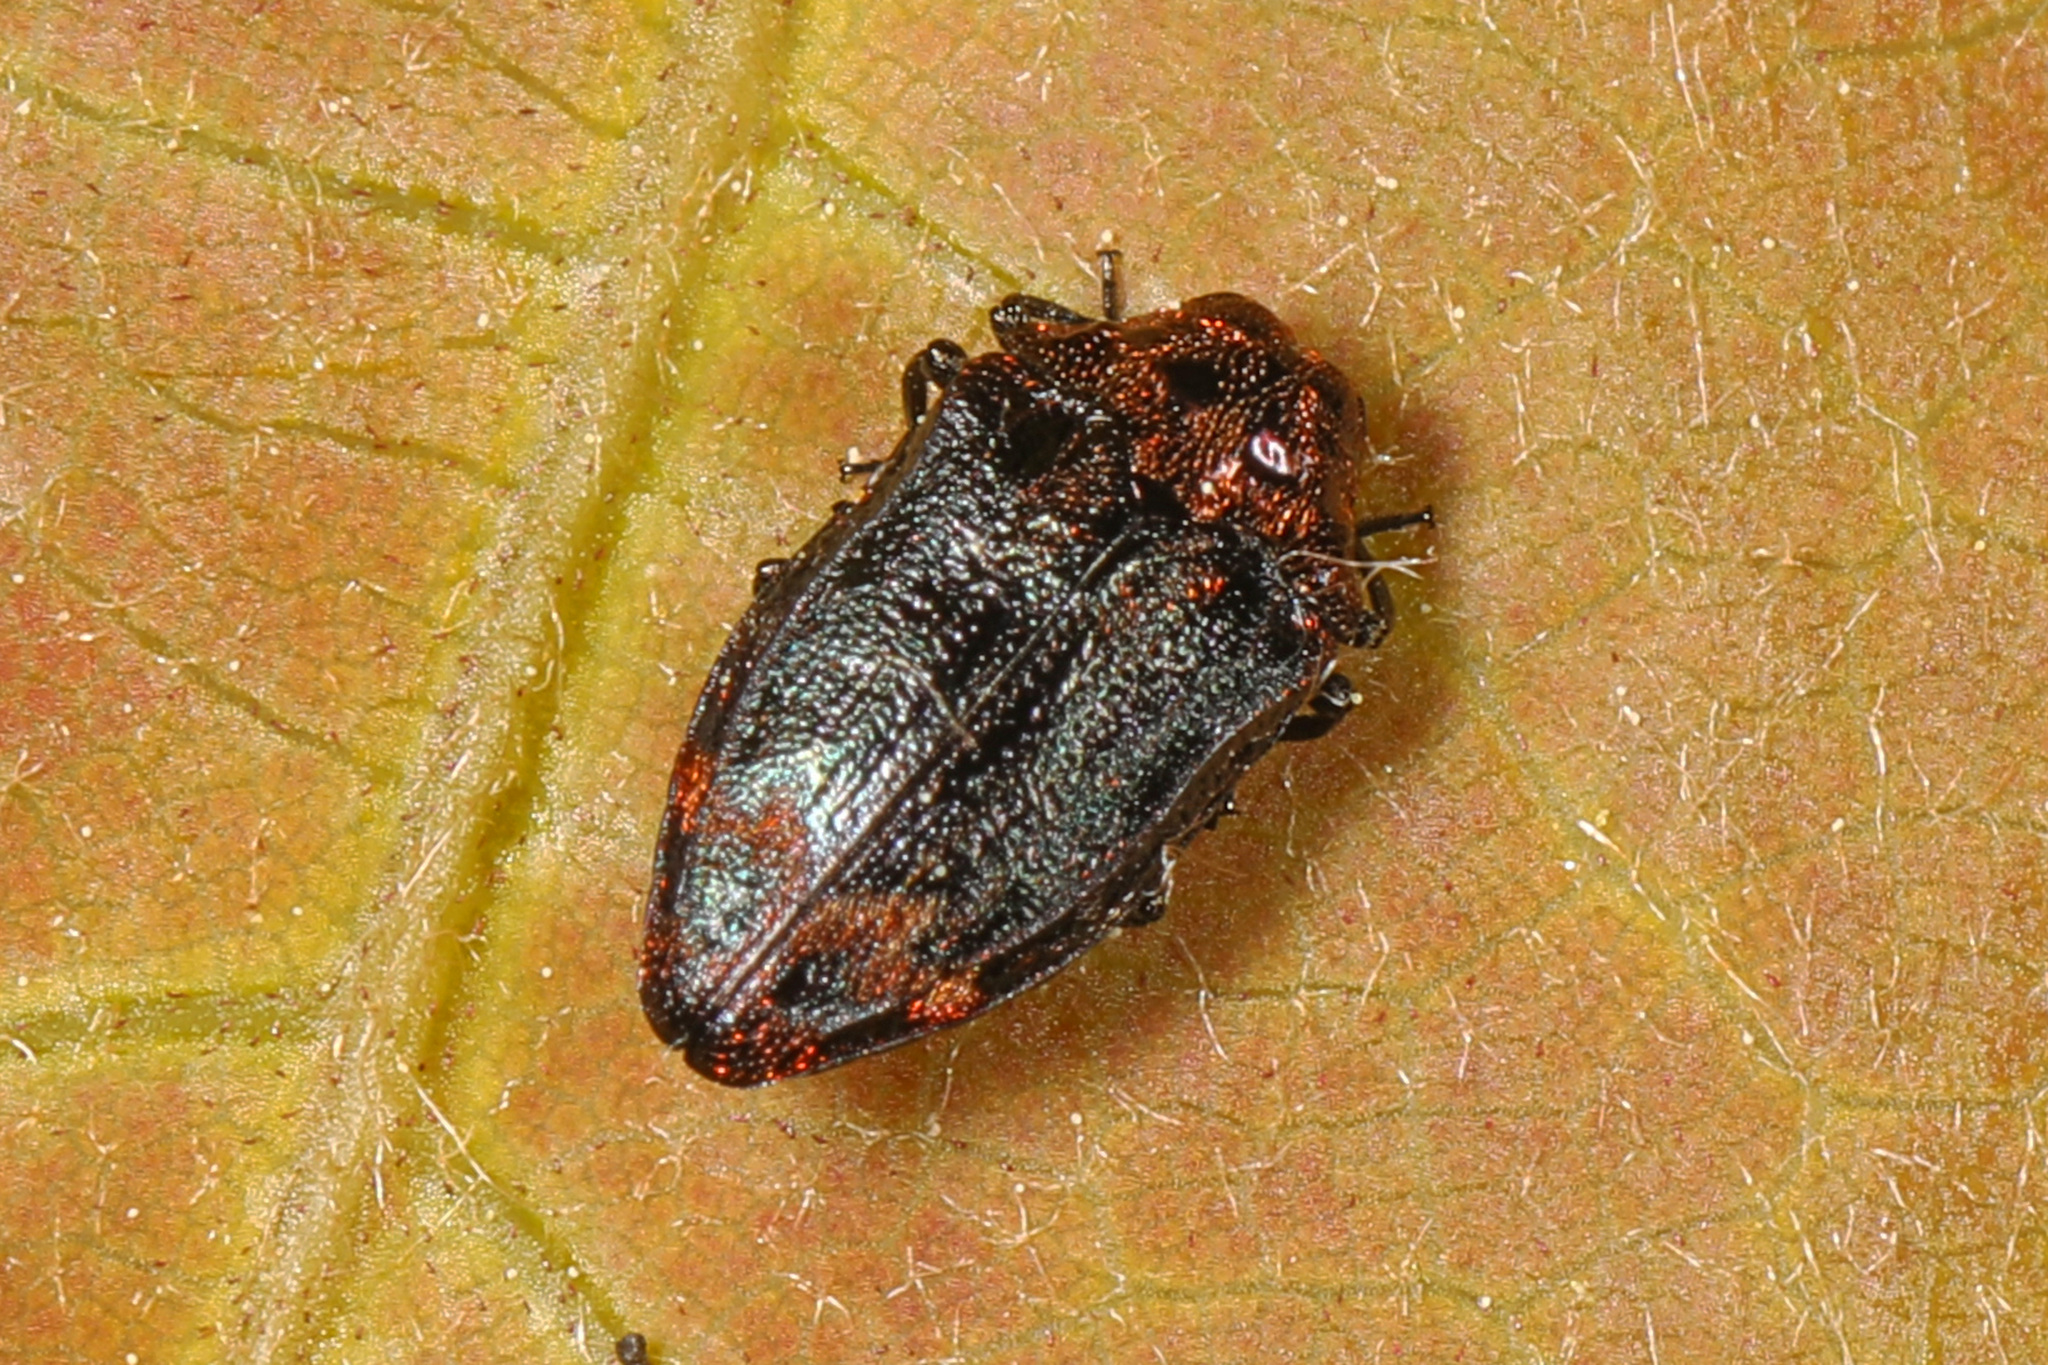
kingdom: Animalia
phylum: Arthropoda
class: Insecta
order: Coleoptera
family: Buprestidae
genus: Brachys
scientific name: Brachys aerosus
